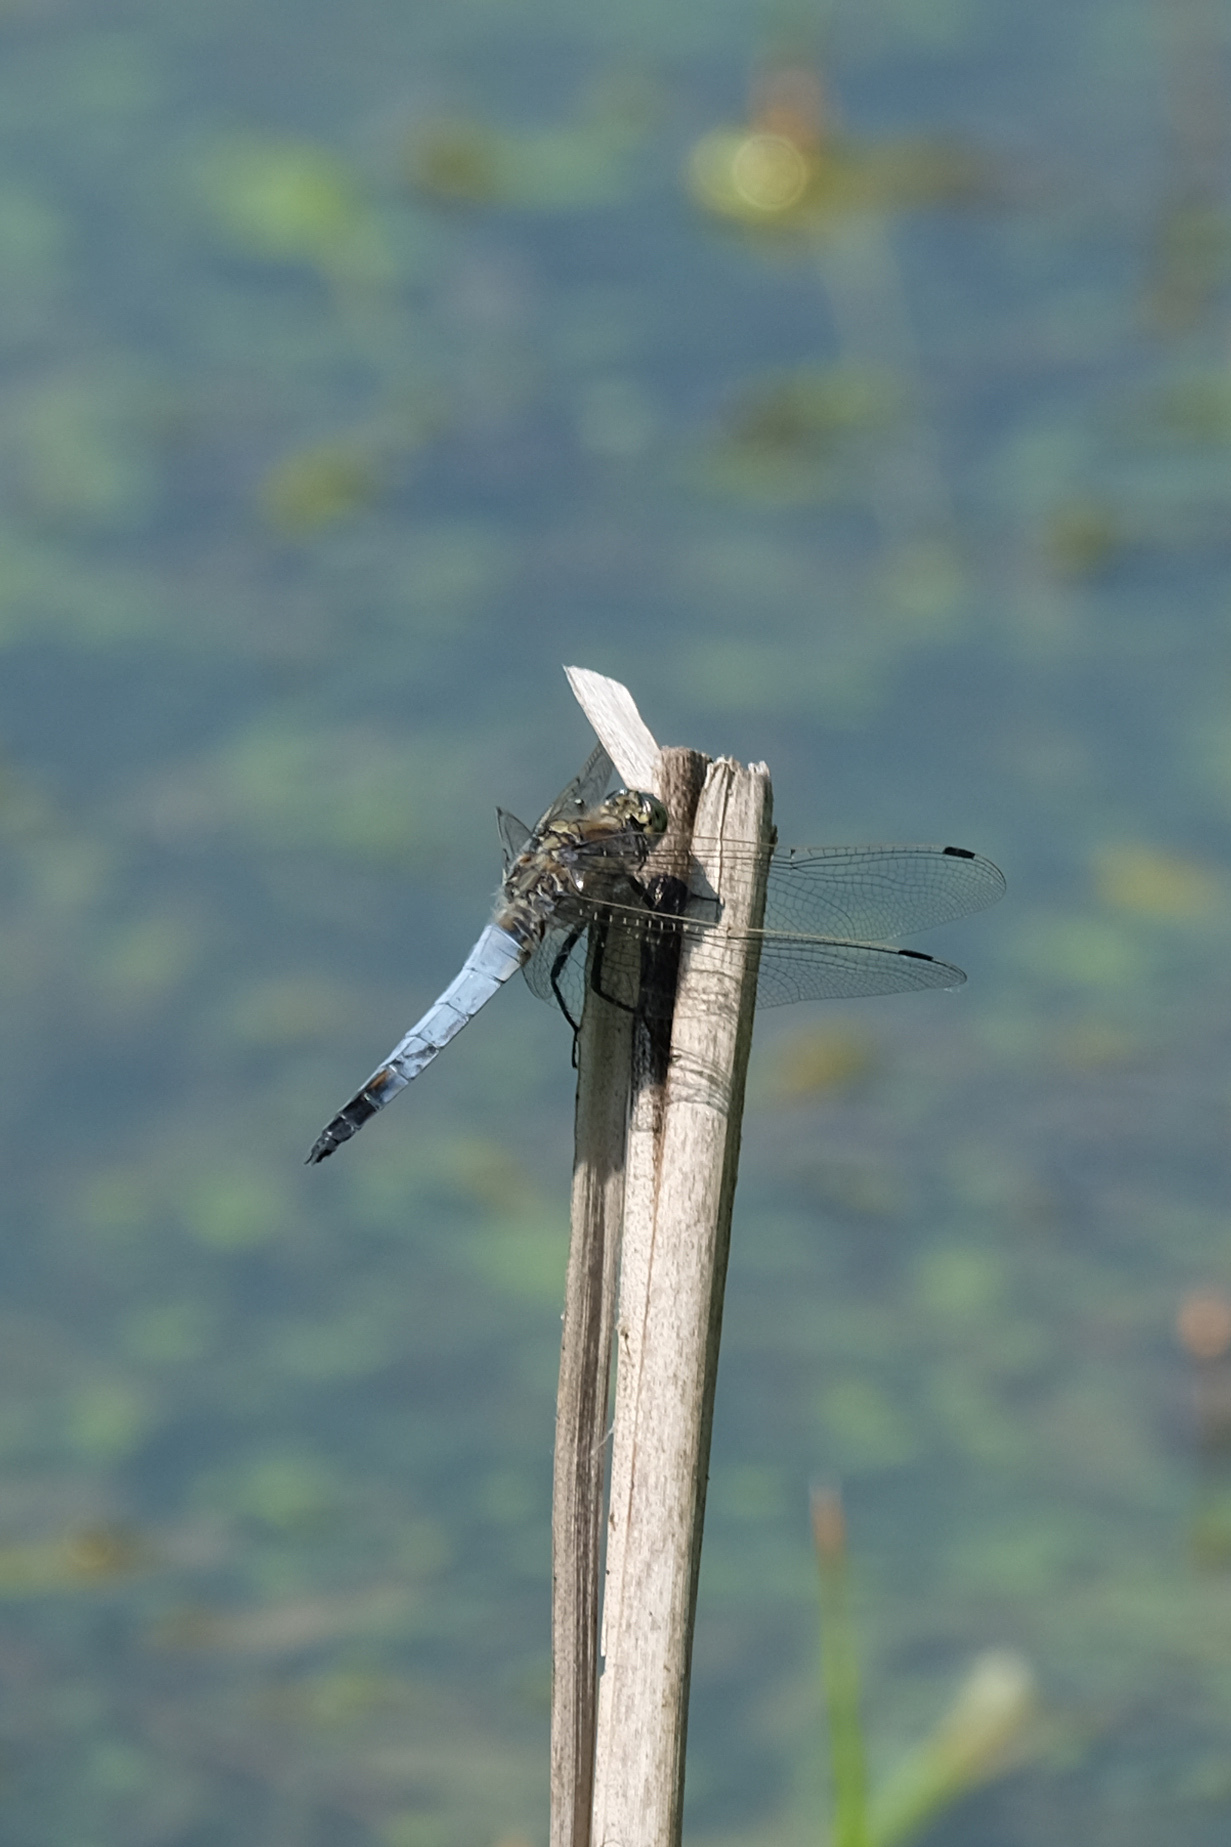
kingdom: Animalia
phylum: Arthropoda
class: Insecta
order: Odonata
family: Libellulidae
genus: Orthetrum
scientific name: Orthetrum cancellatum
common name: Black-tailed skimmer
